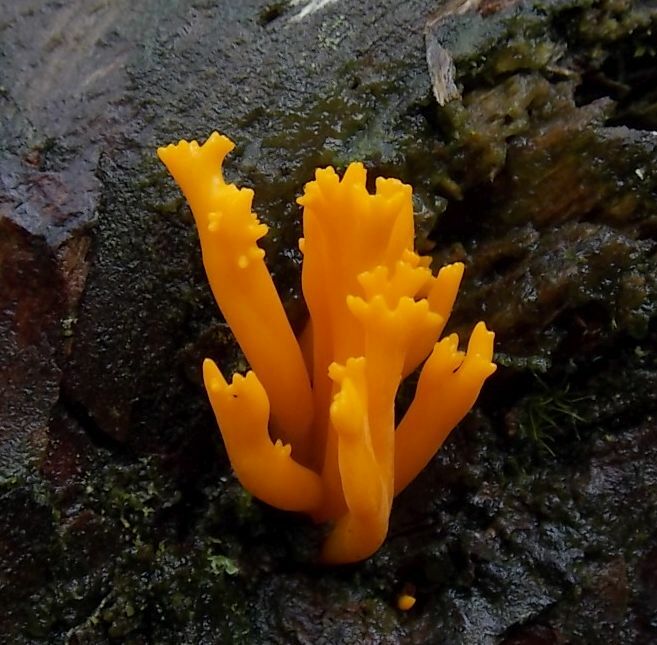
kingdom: Fungi
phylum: Basidiomycota
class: Dacrymycetes
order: Dacrymycetales
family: Dacrymycetaceae
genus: Calocera
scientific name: Calocera viscosa
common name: Yellow stagshorn
